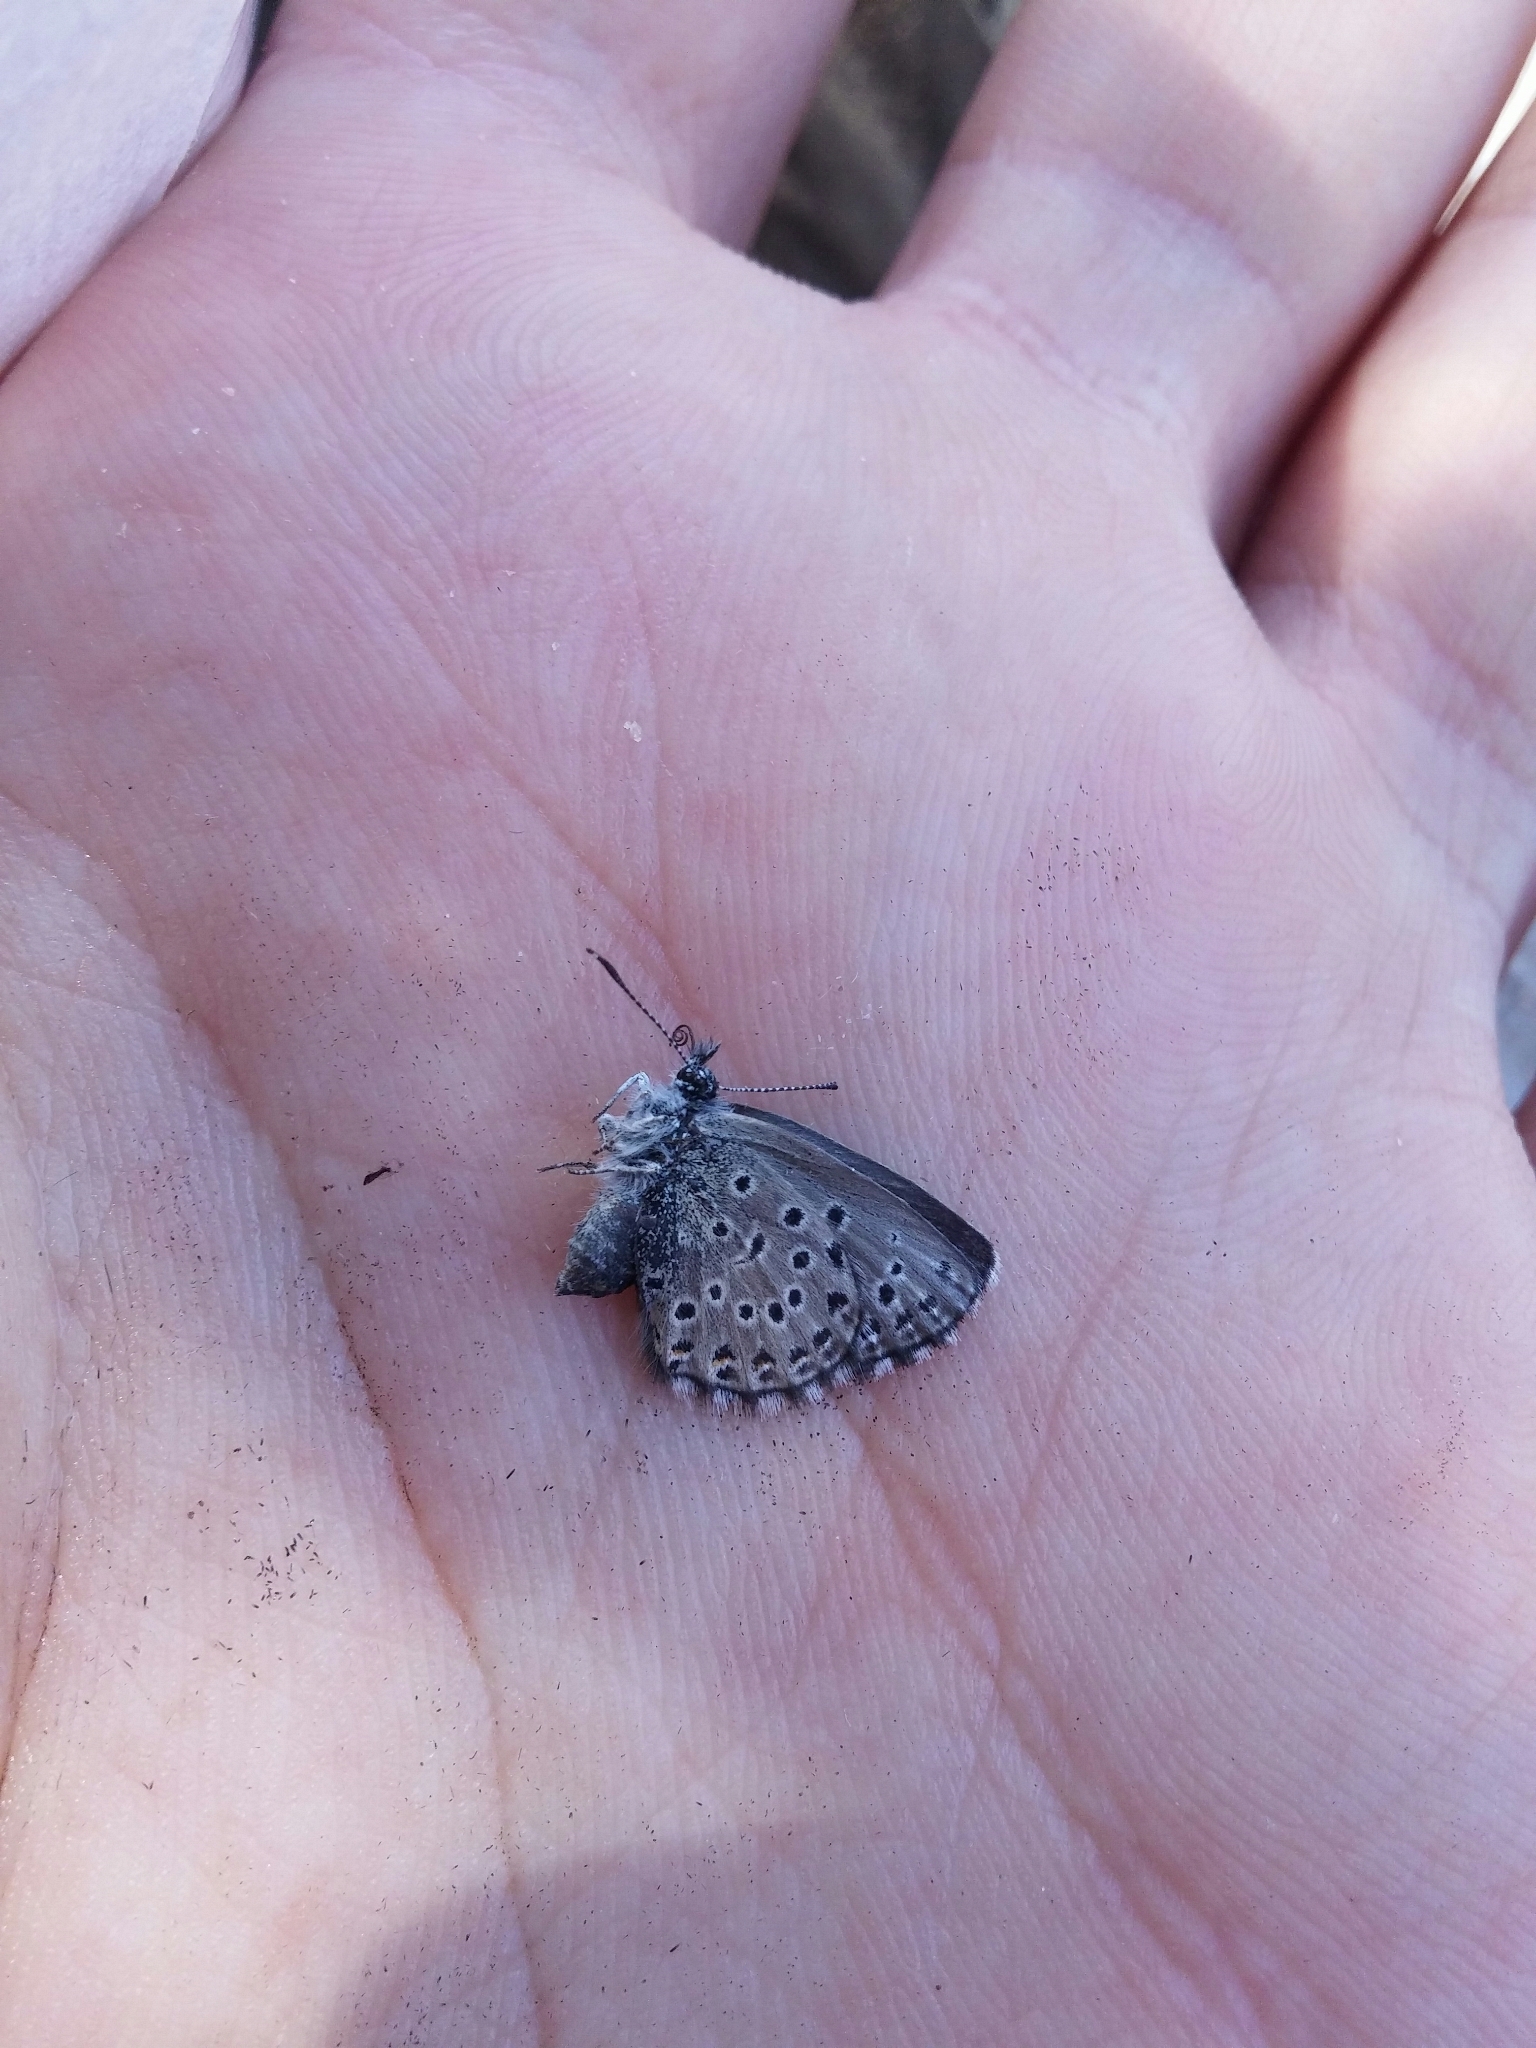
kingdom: Animalia
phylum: Arthropoda
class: Insecta
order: Lepidoptera
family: Lycaenidae
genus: Pseudophilotes
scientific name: Pseudophilotes baton
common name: Baton blue
